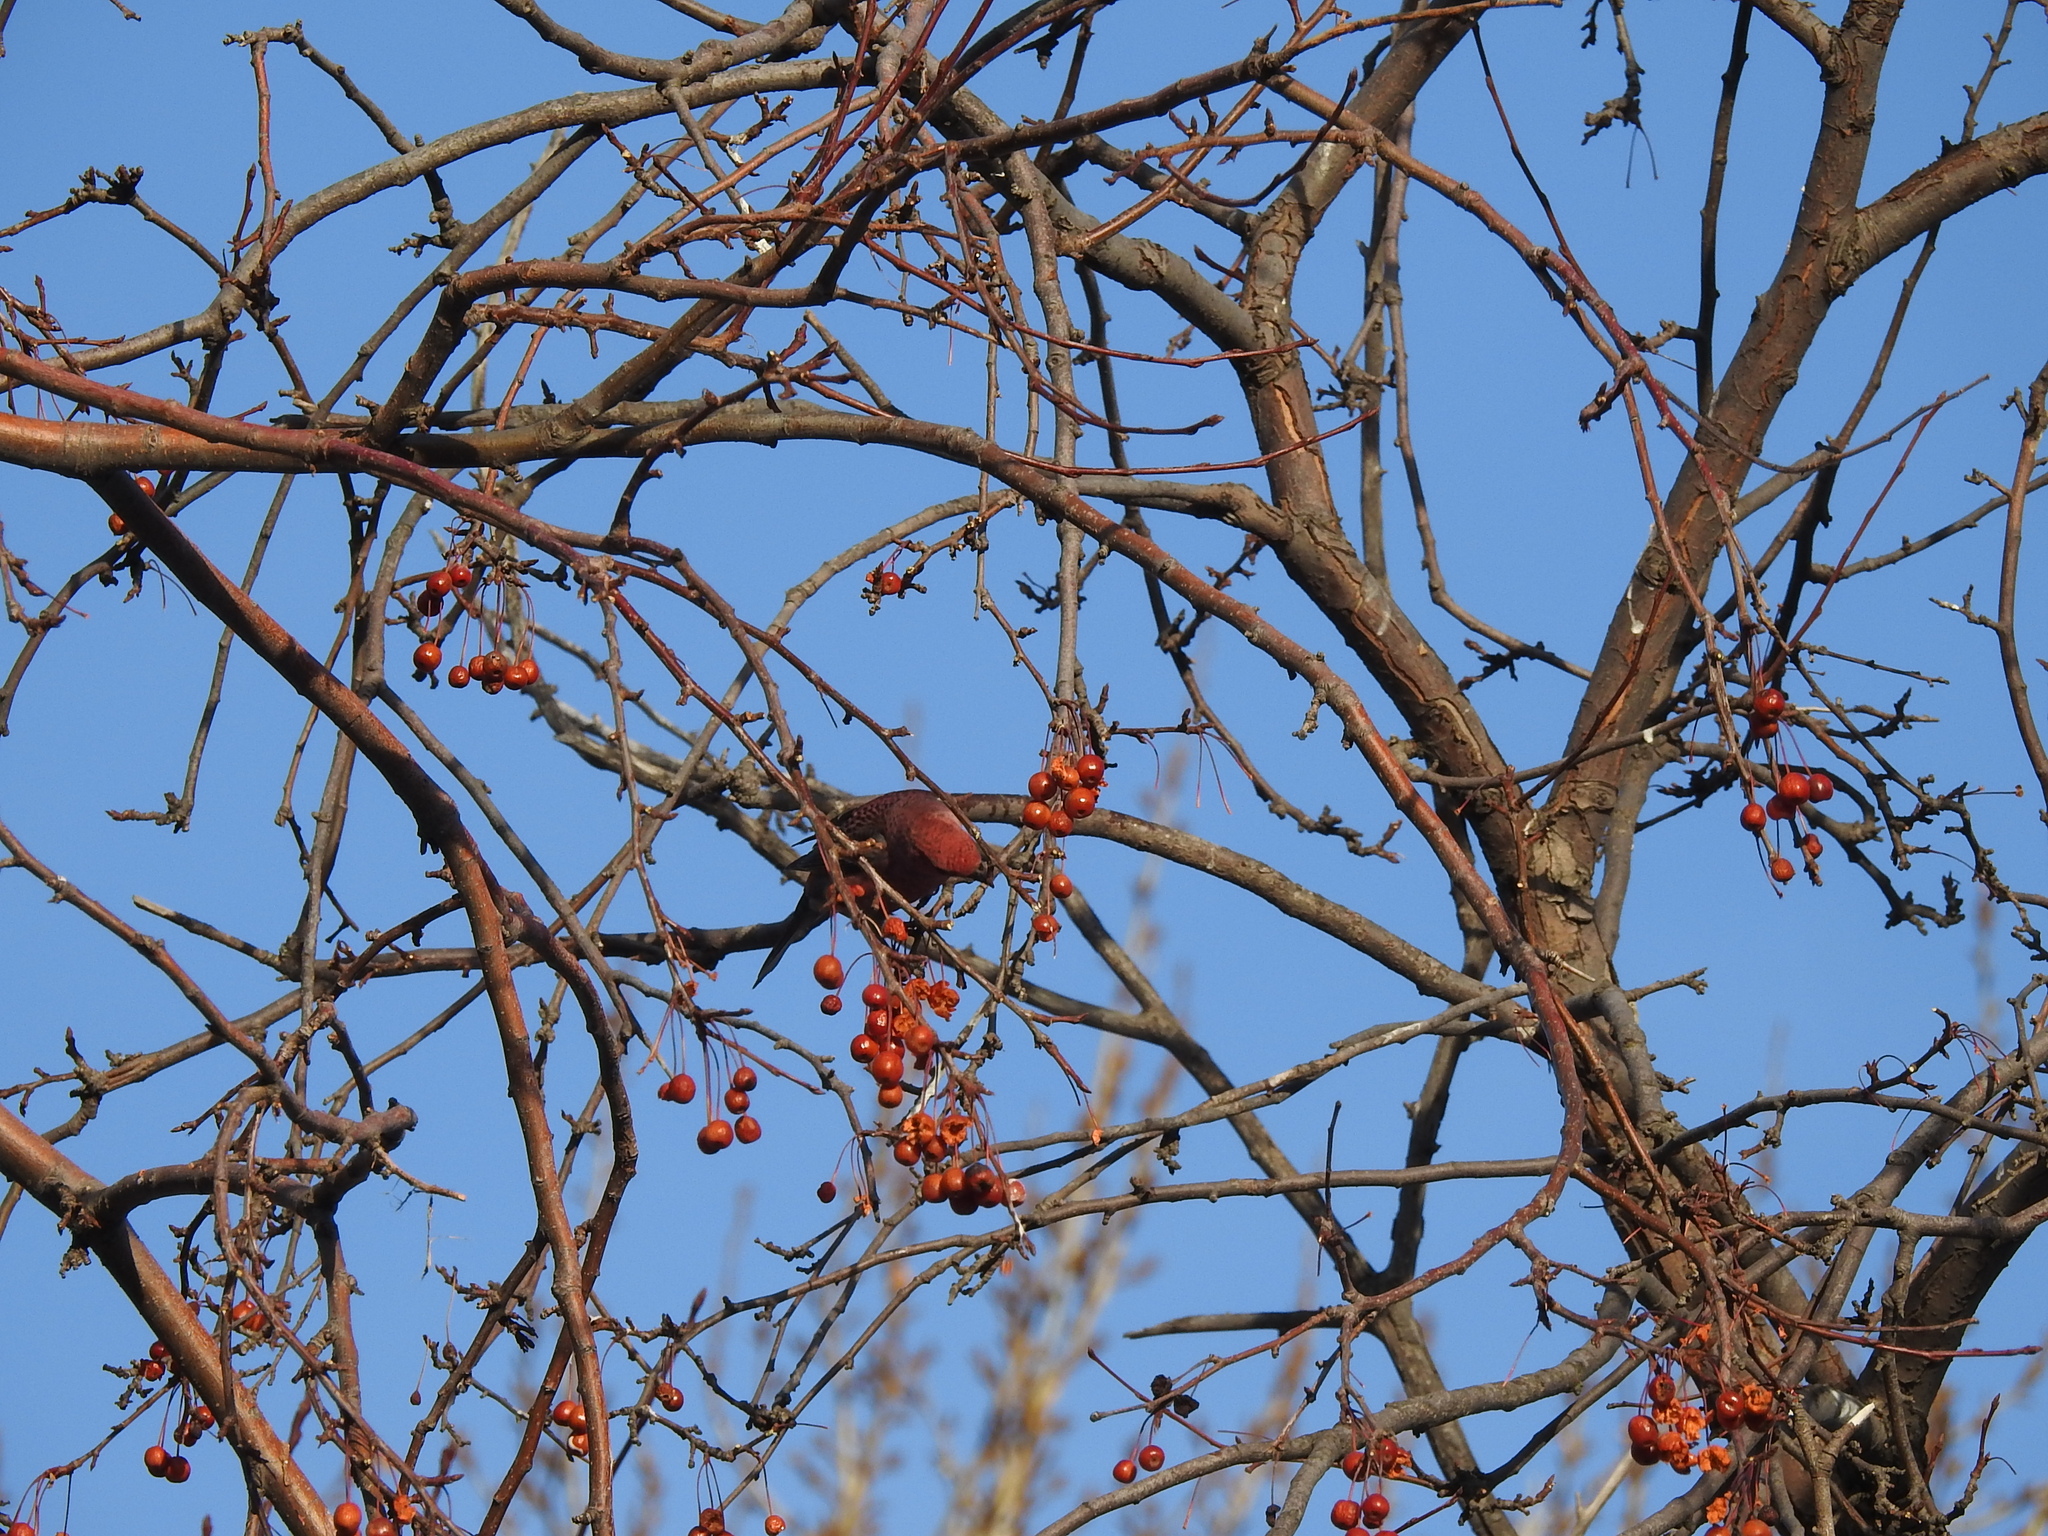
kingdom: Animalia
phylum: Chordata
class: Aves
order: Passeriformes
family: Fringillidae
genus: Pinicola
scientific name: Pinicola enucleator
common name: Pine grosbeak
